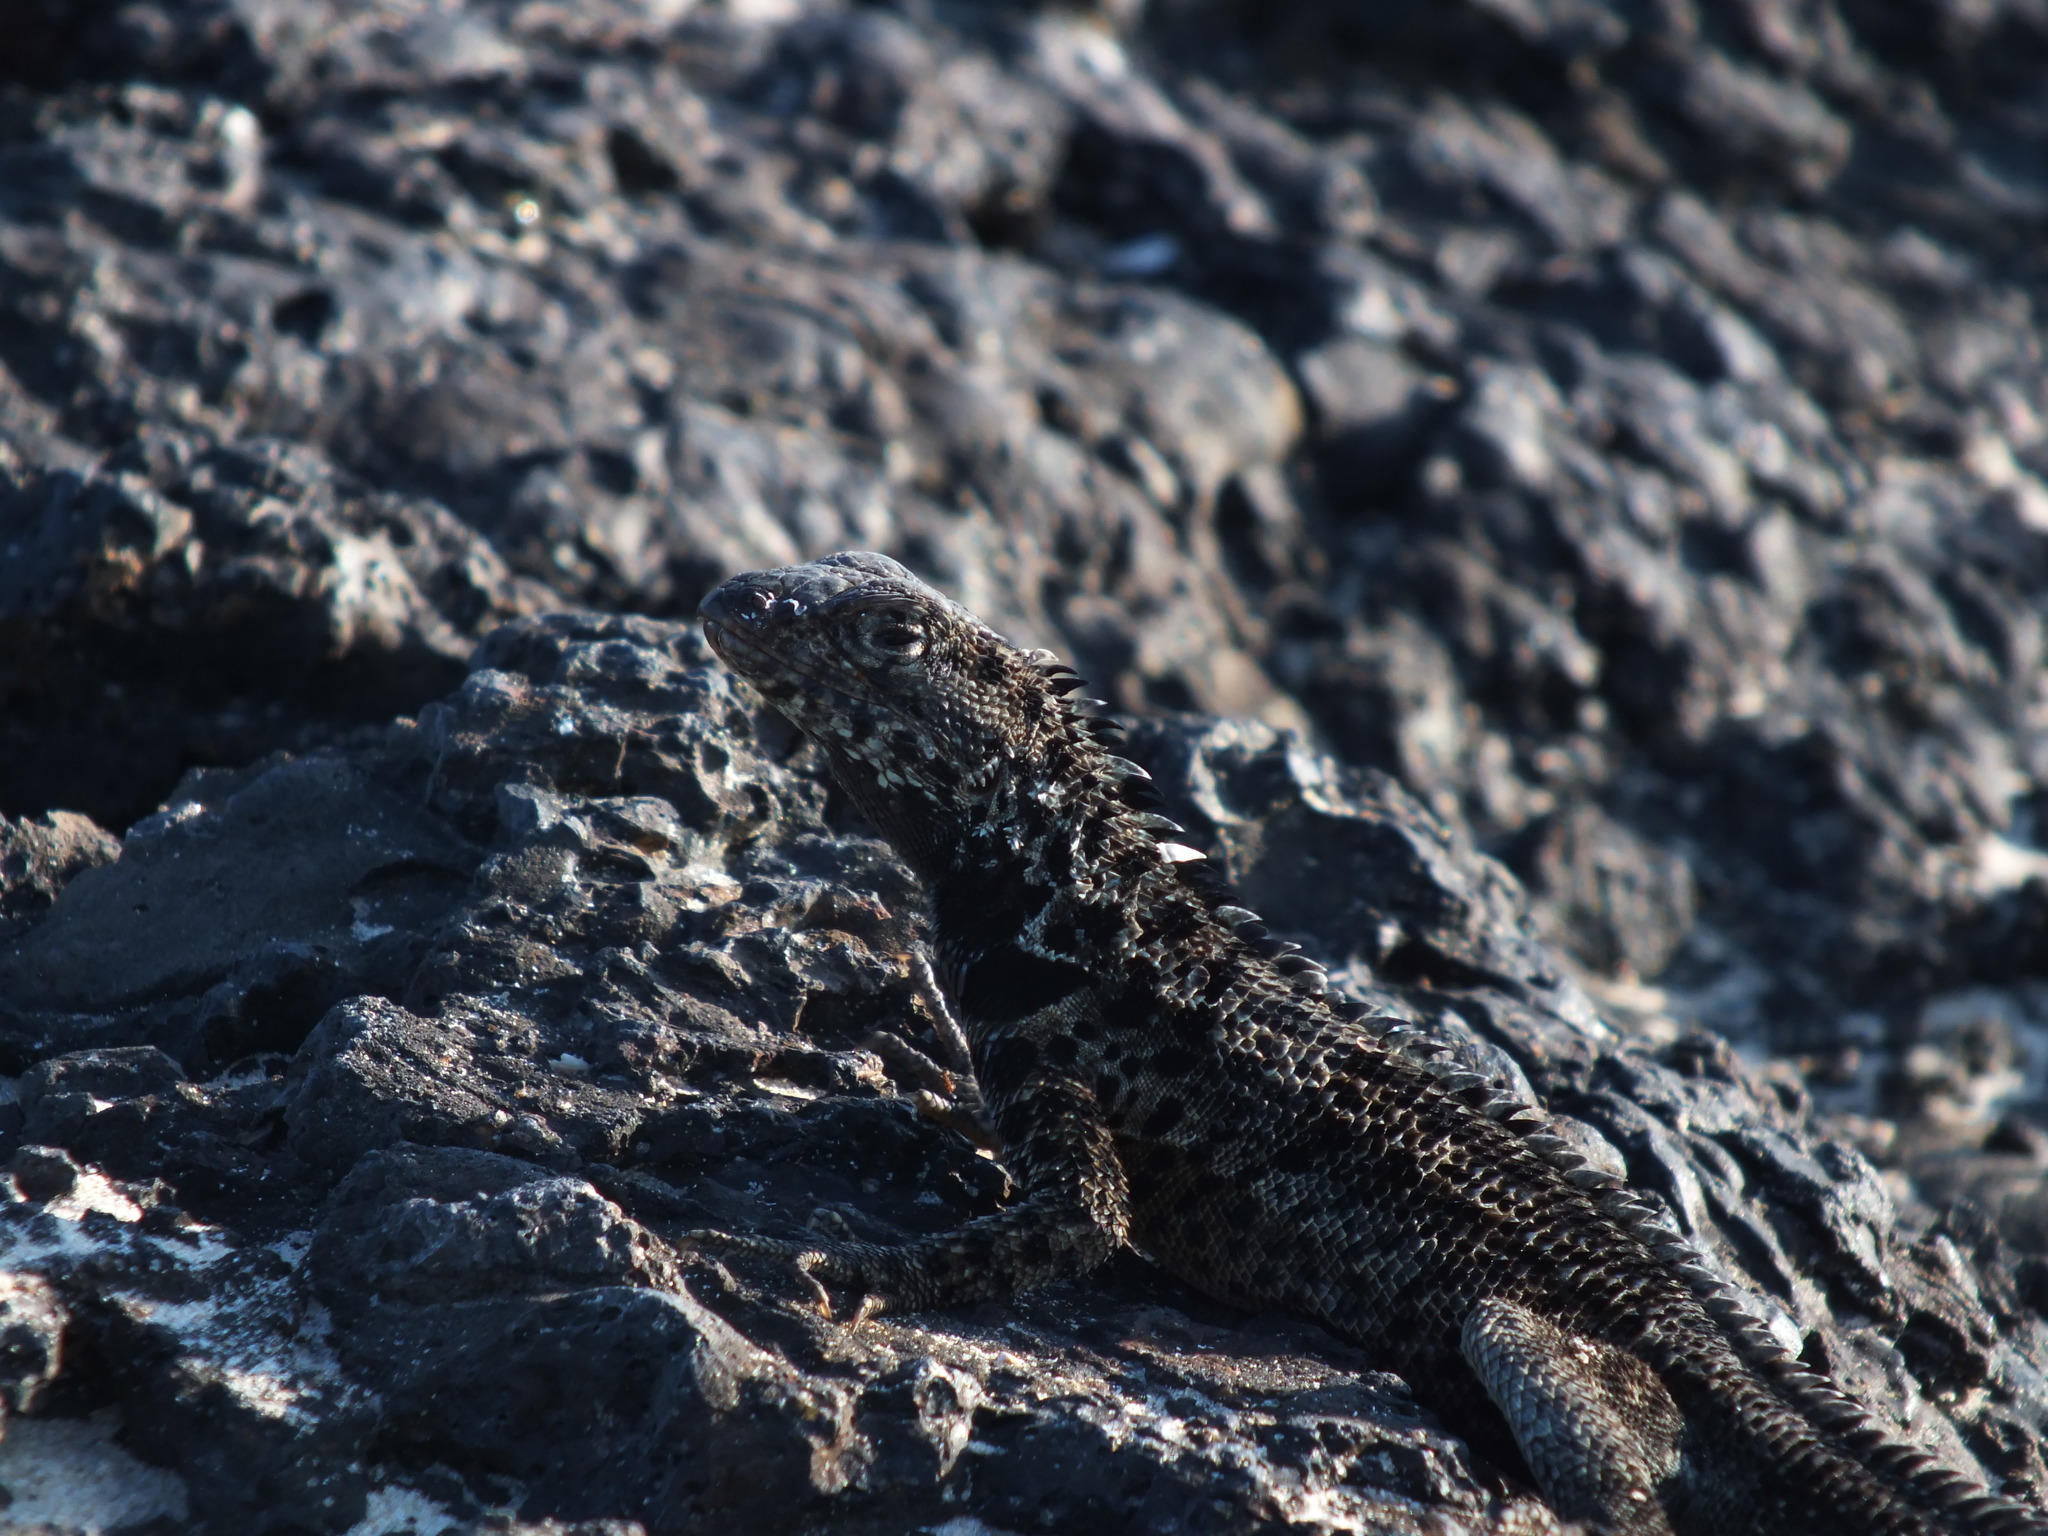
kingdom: Animalia
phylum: Chordata
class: Squamata
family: Tropiduridae
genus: Microlophus
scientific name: Microlophus albemarlensis
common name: Galapagos lava lizard
